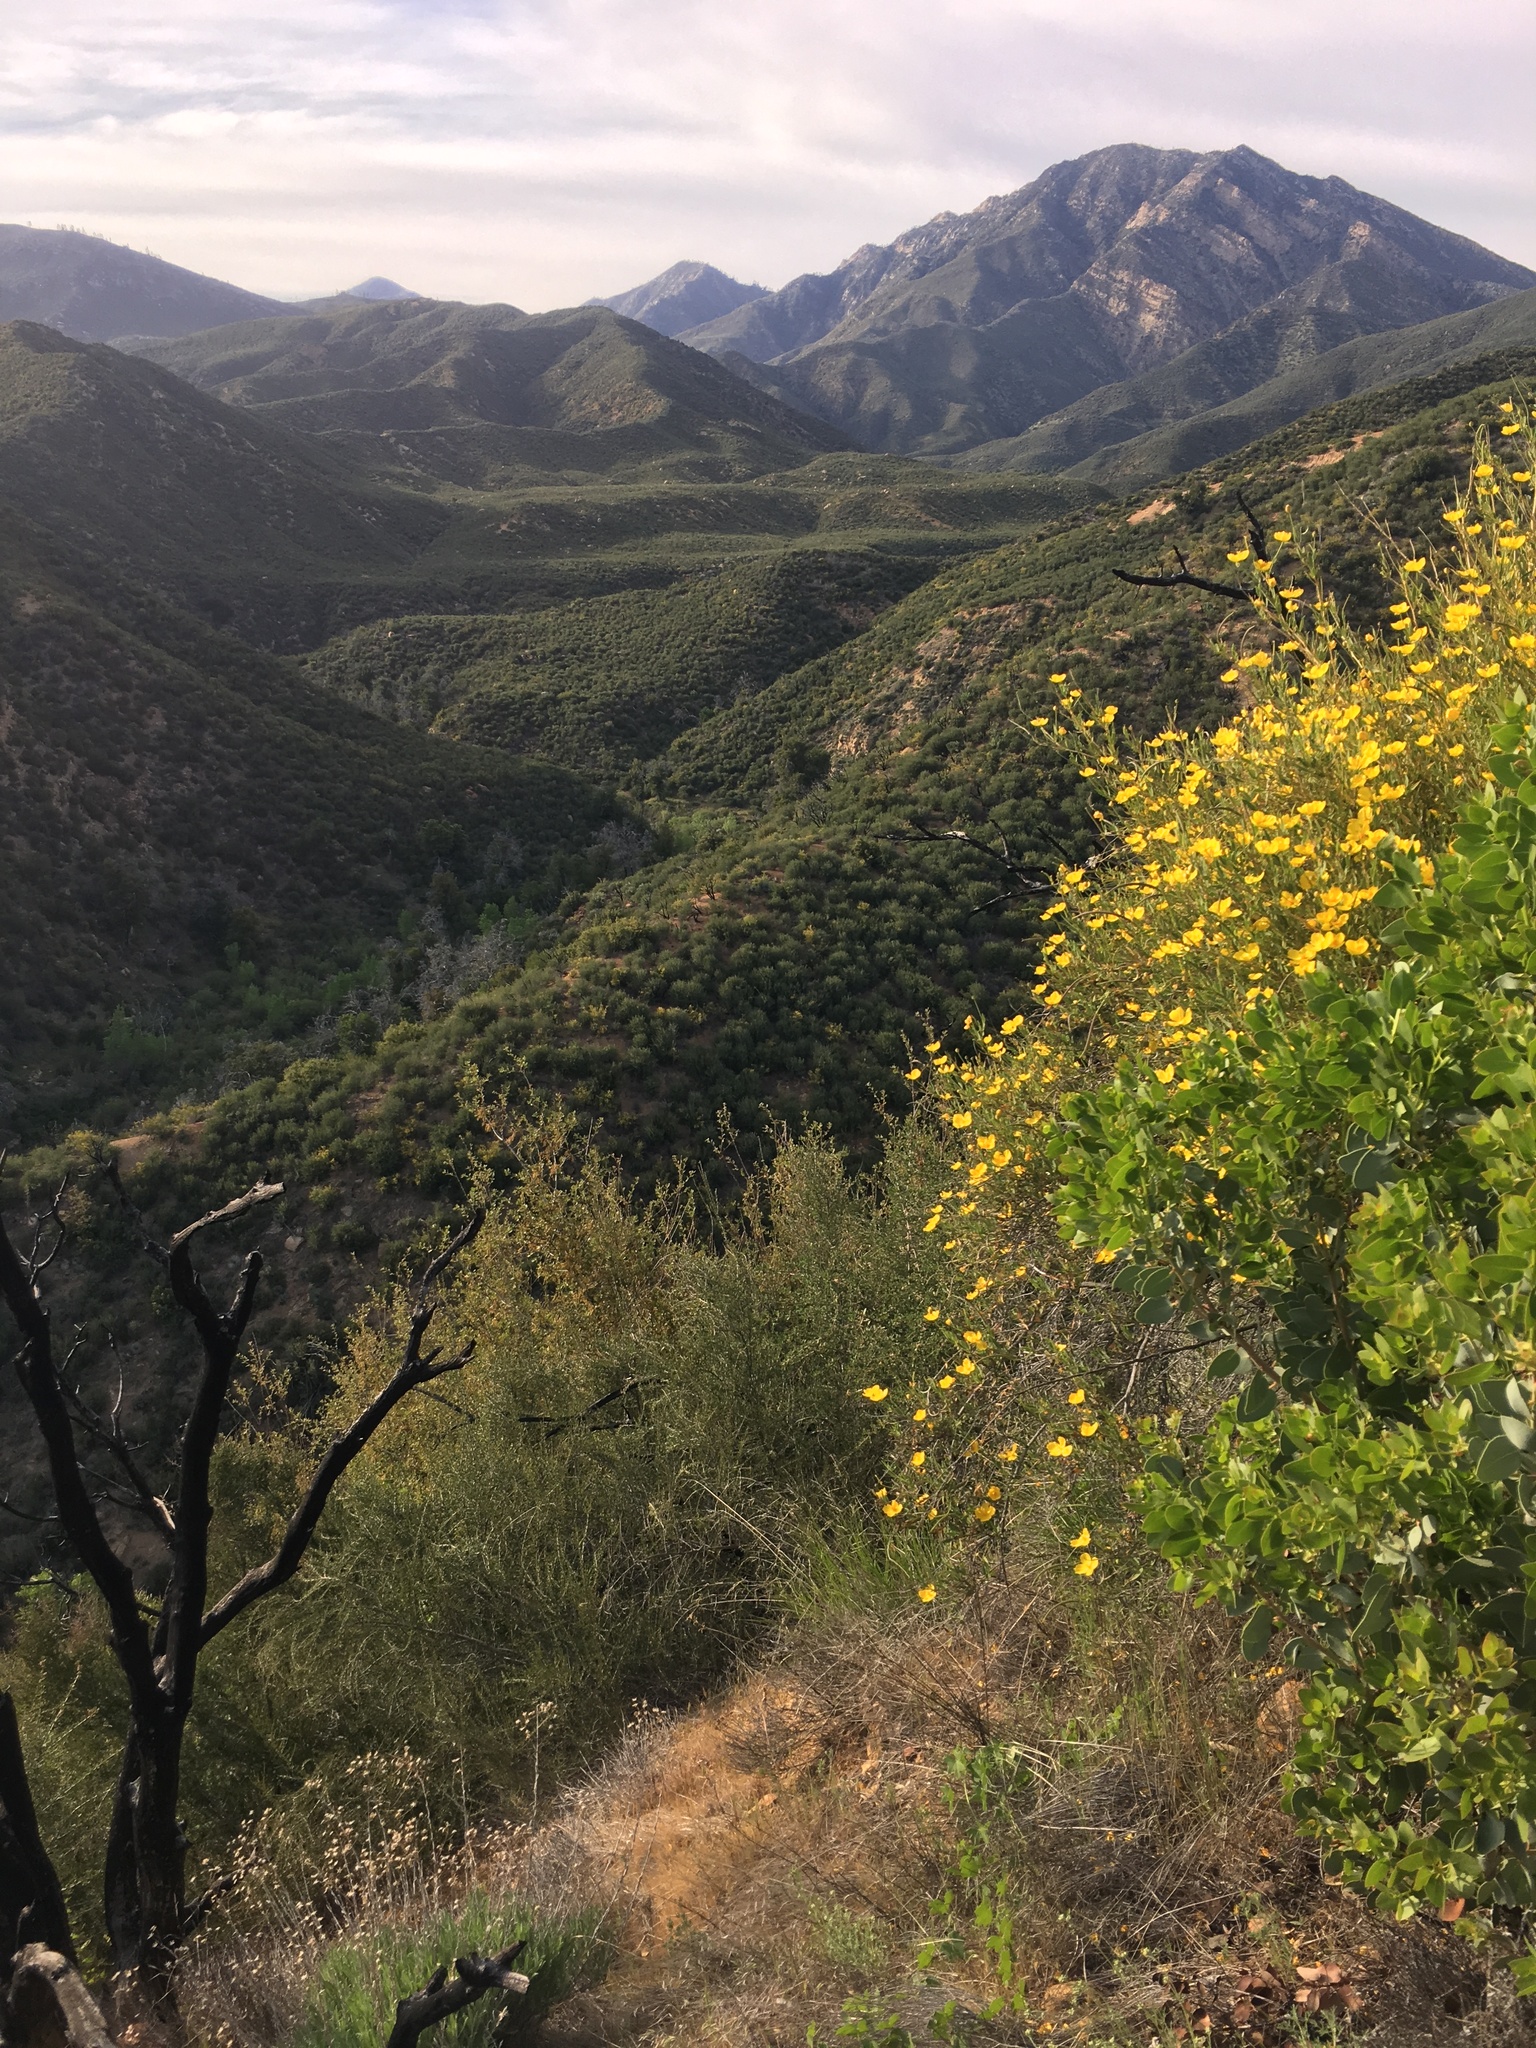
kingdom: Plantae
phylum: Tracheophyta
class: Magnoliopsida
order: Ranunculales
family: Papaveraceae
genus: Dendromecon
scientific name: Dendromecon rigida
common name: Tree poppy
